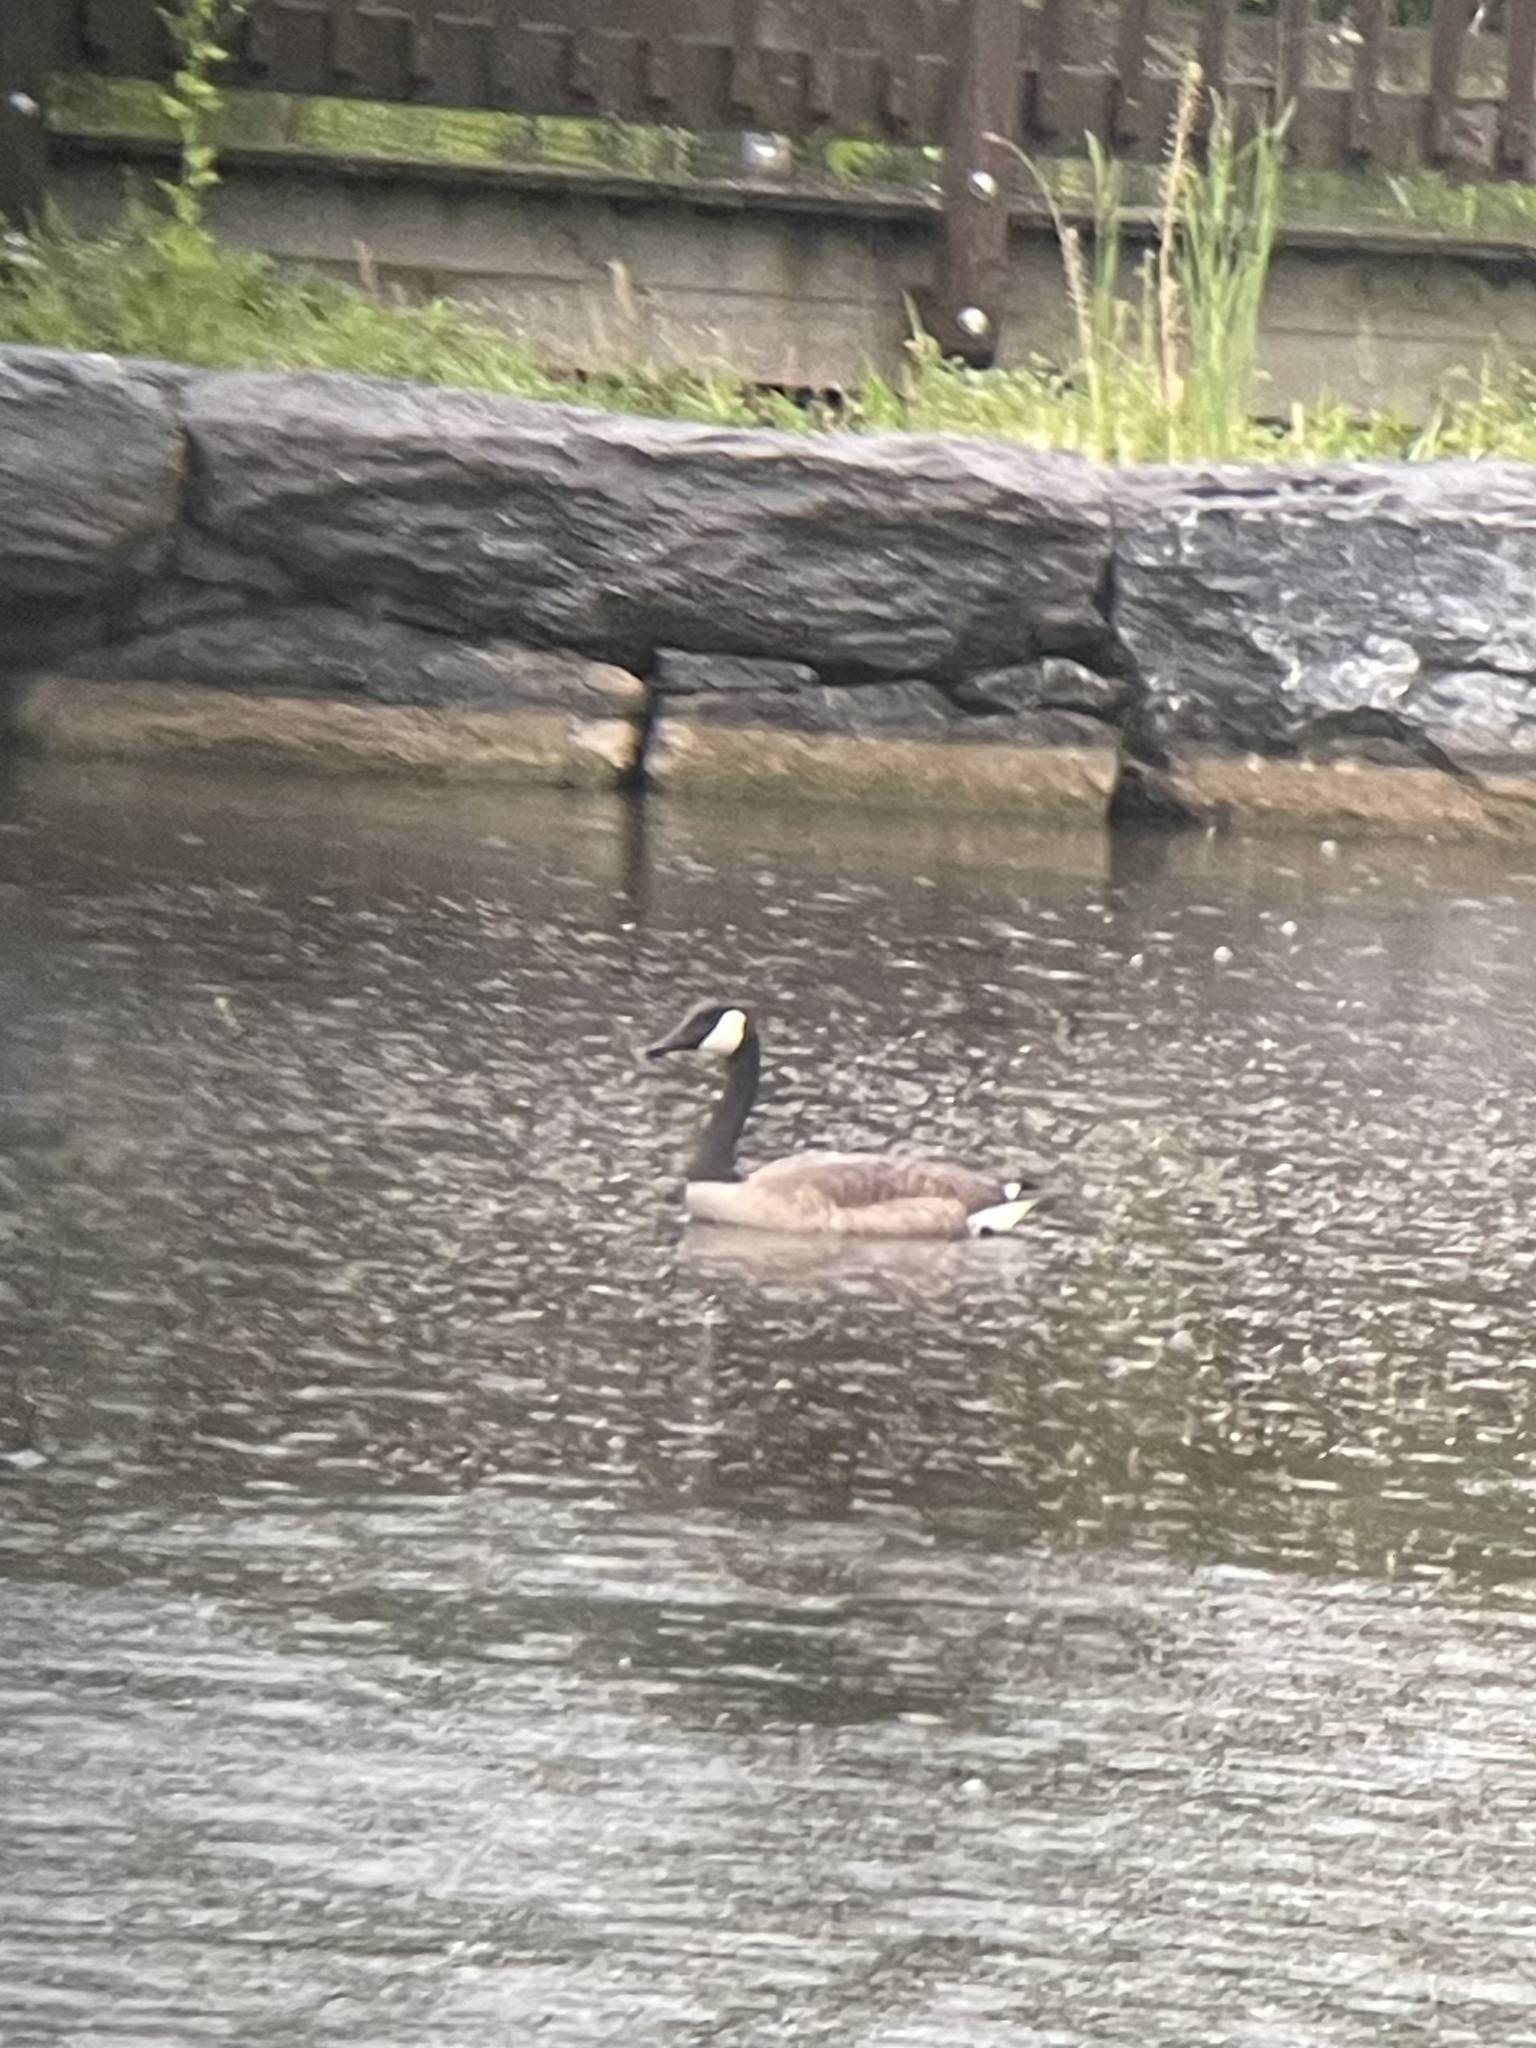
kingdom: Animalia
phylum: Chordata
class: Aves
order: Anseriformes
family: Anatidae
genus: Branta
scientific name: Branta canadensis
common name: Canada goose
